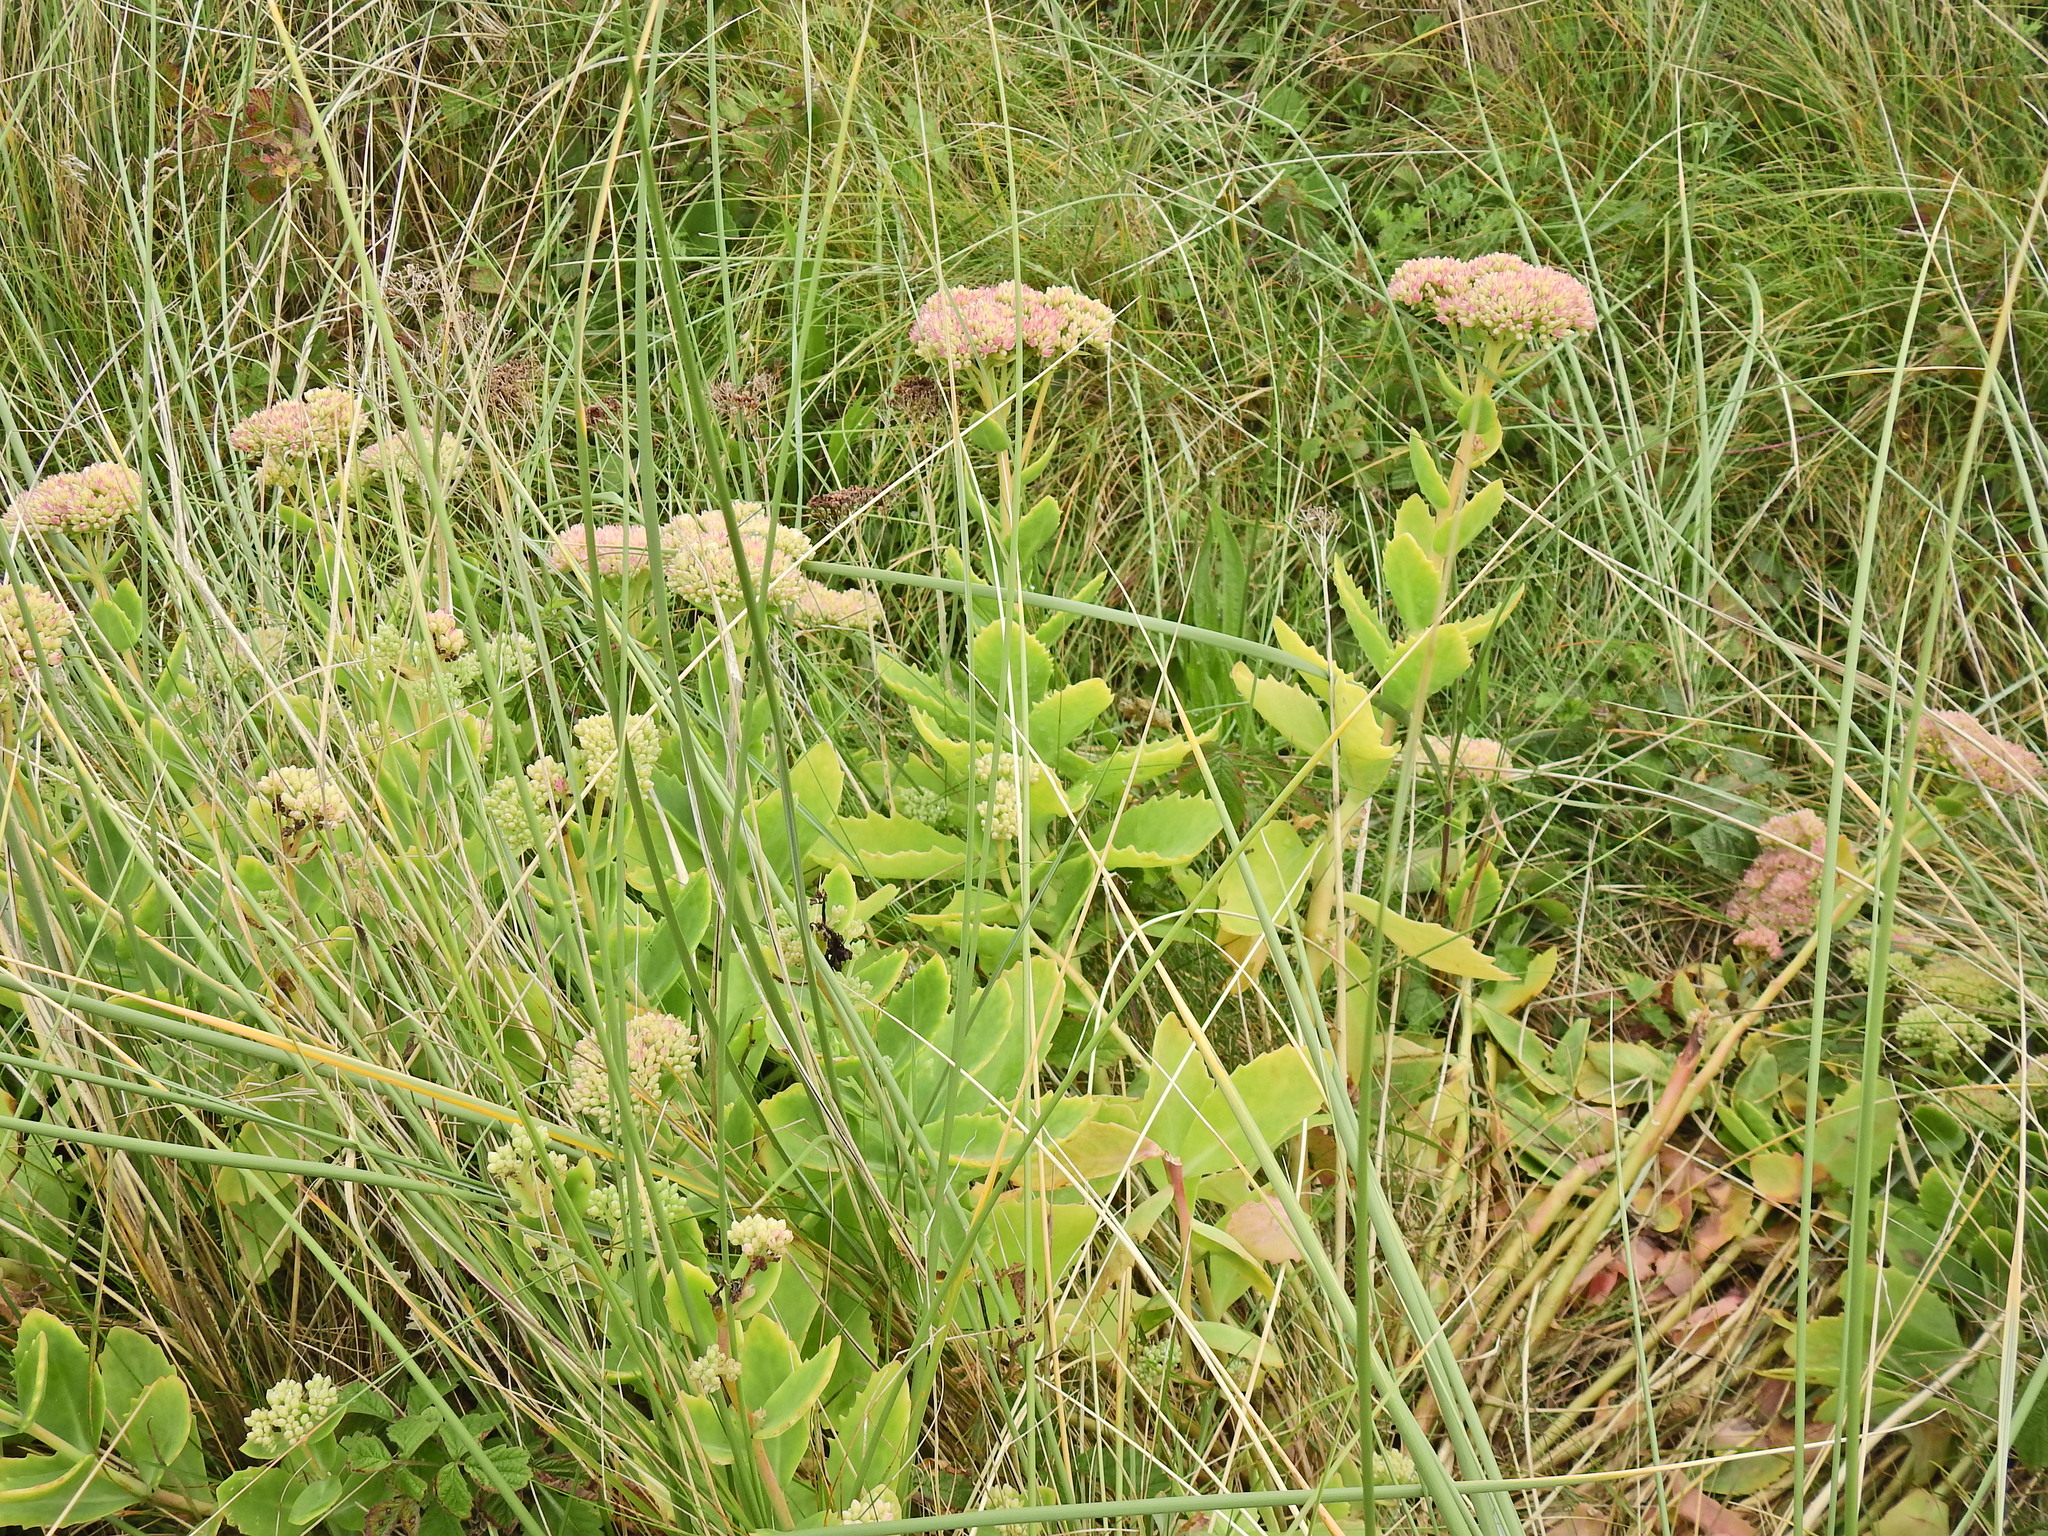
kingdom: Plantae
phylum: Tracheophyta
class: Magnoliopsida
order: Saxifragales
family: Crassulaceae
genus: Hylotelephium
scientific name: Hylotelephium
